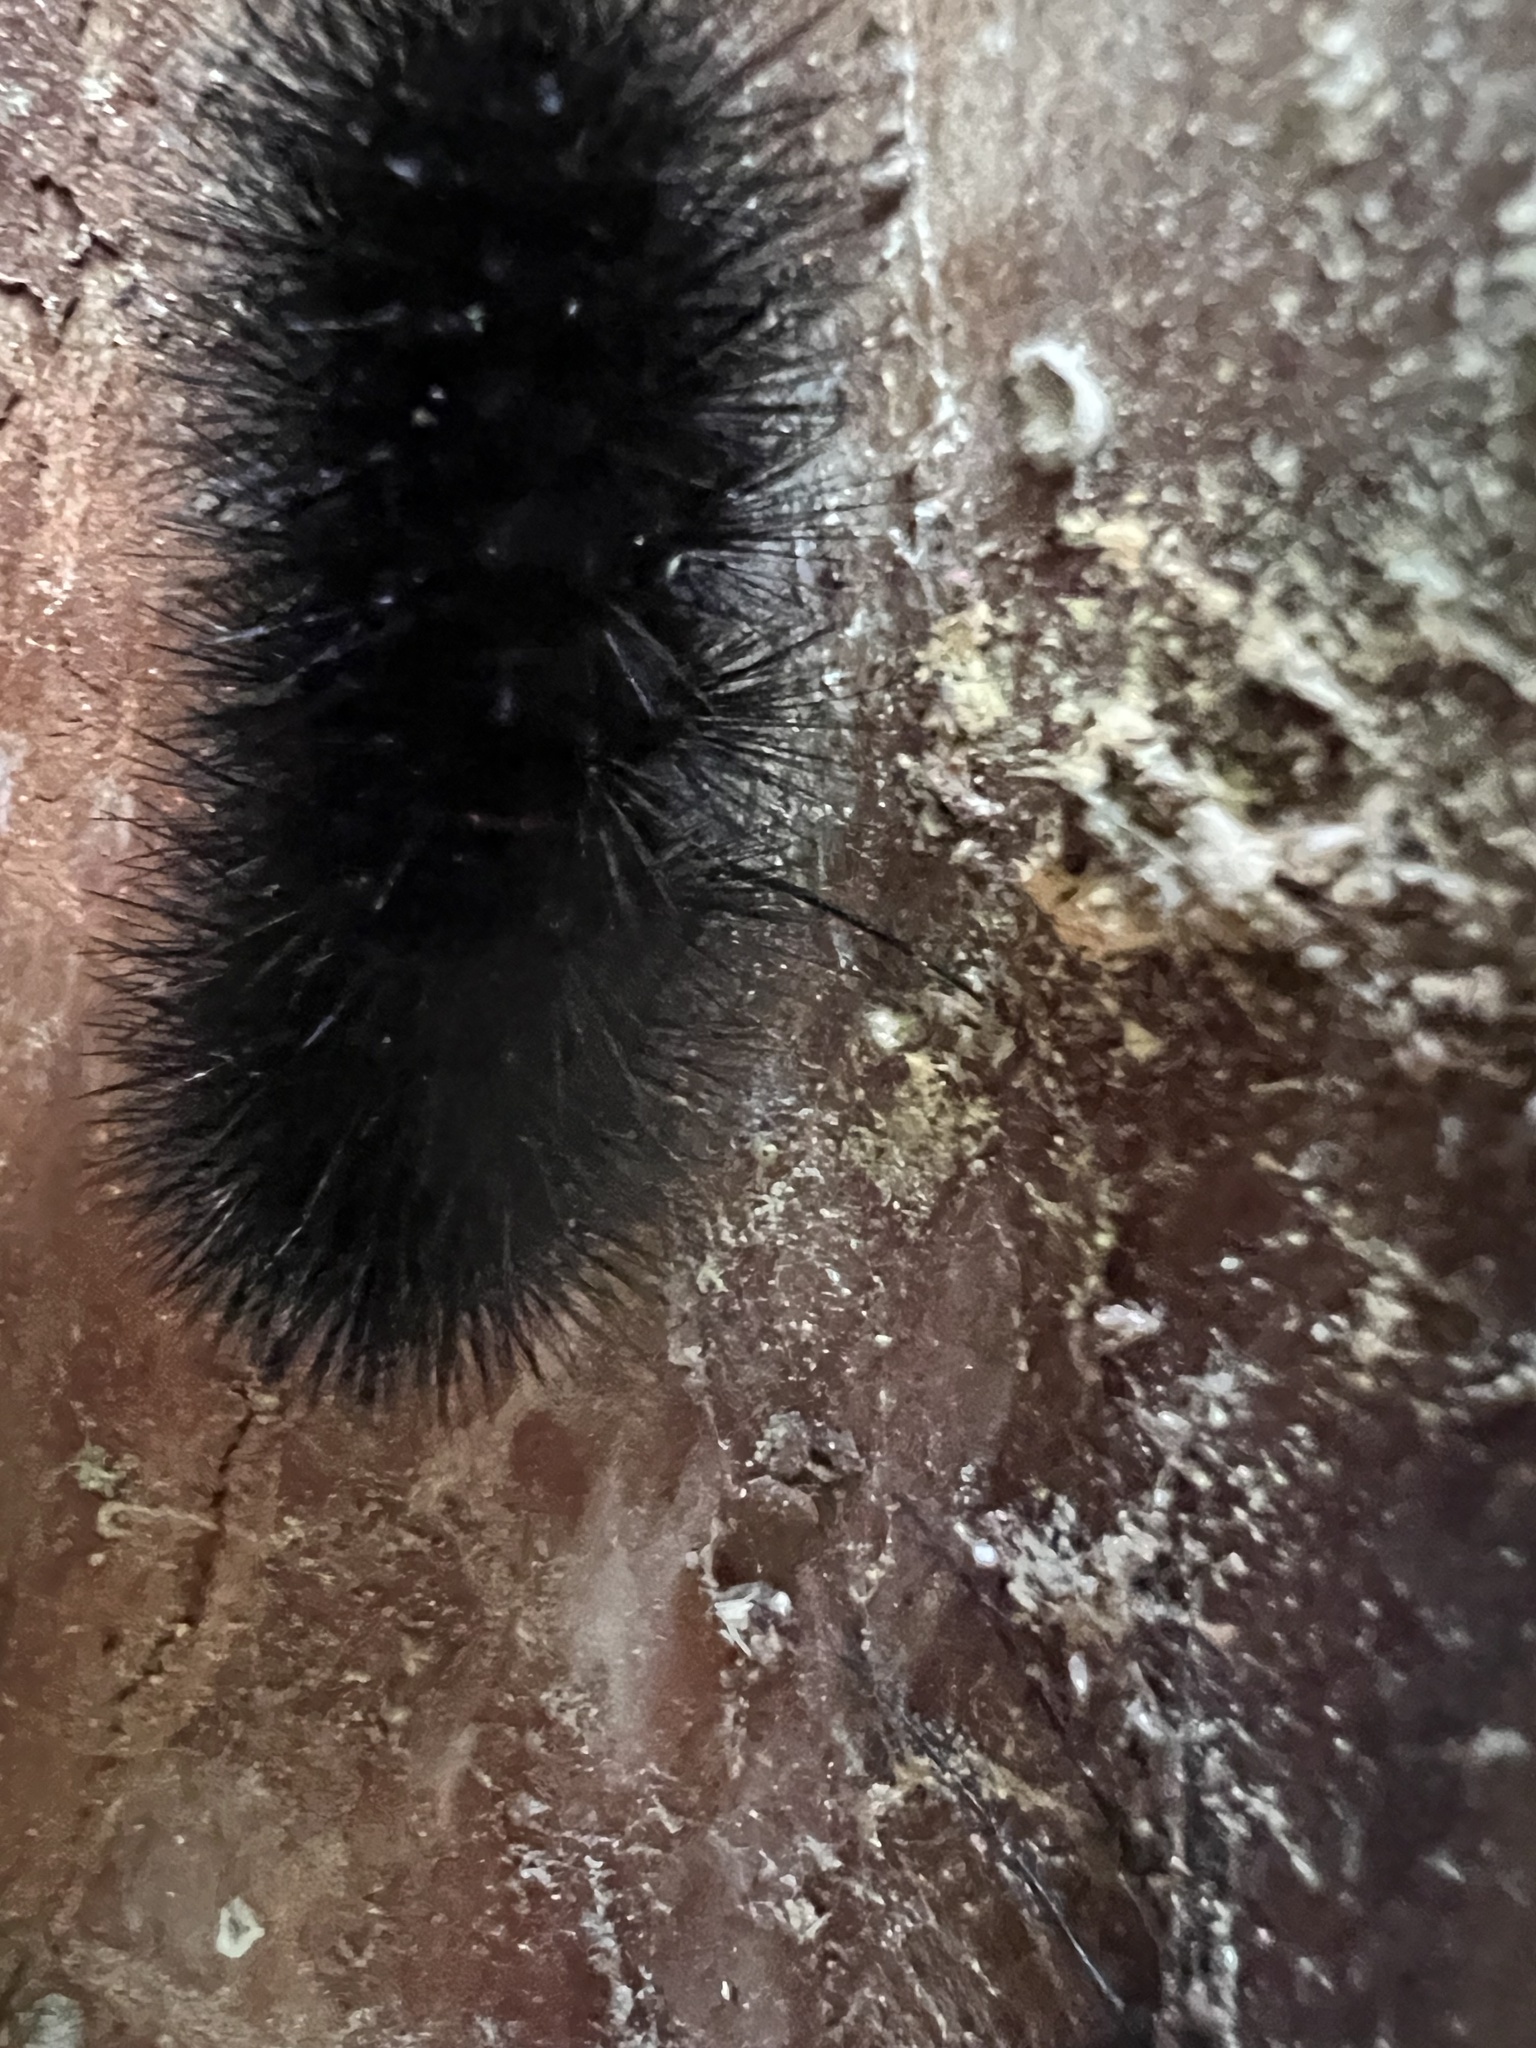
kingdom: Animalia
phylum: Arthropoda
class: Insecta
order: Lepidoptera
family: Erebidae
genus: Hypercompe
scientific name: Hypercompe scribonia
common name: Giant leopard moth
